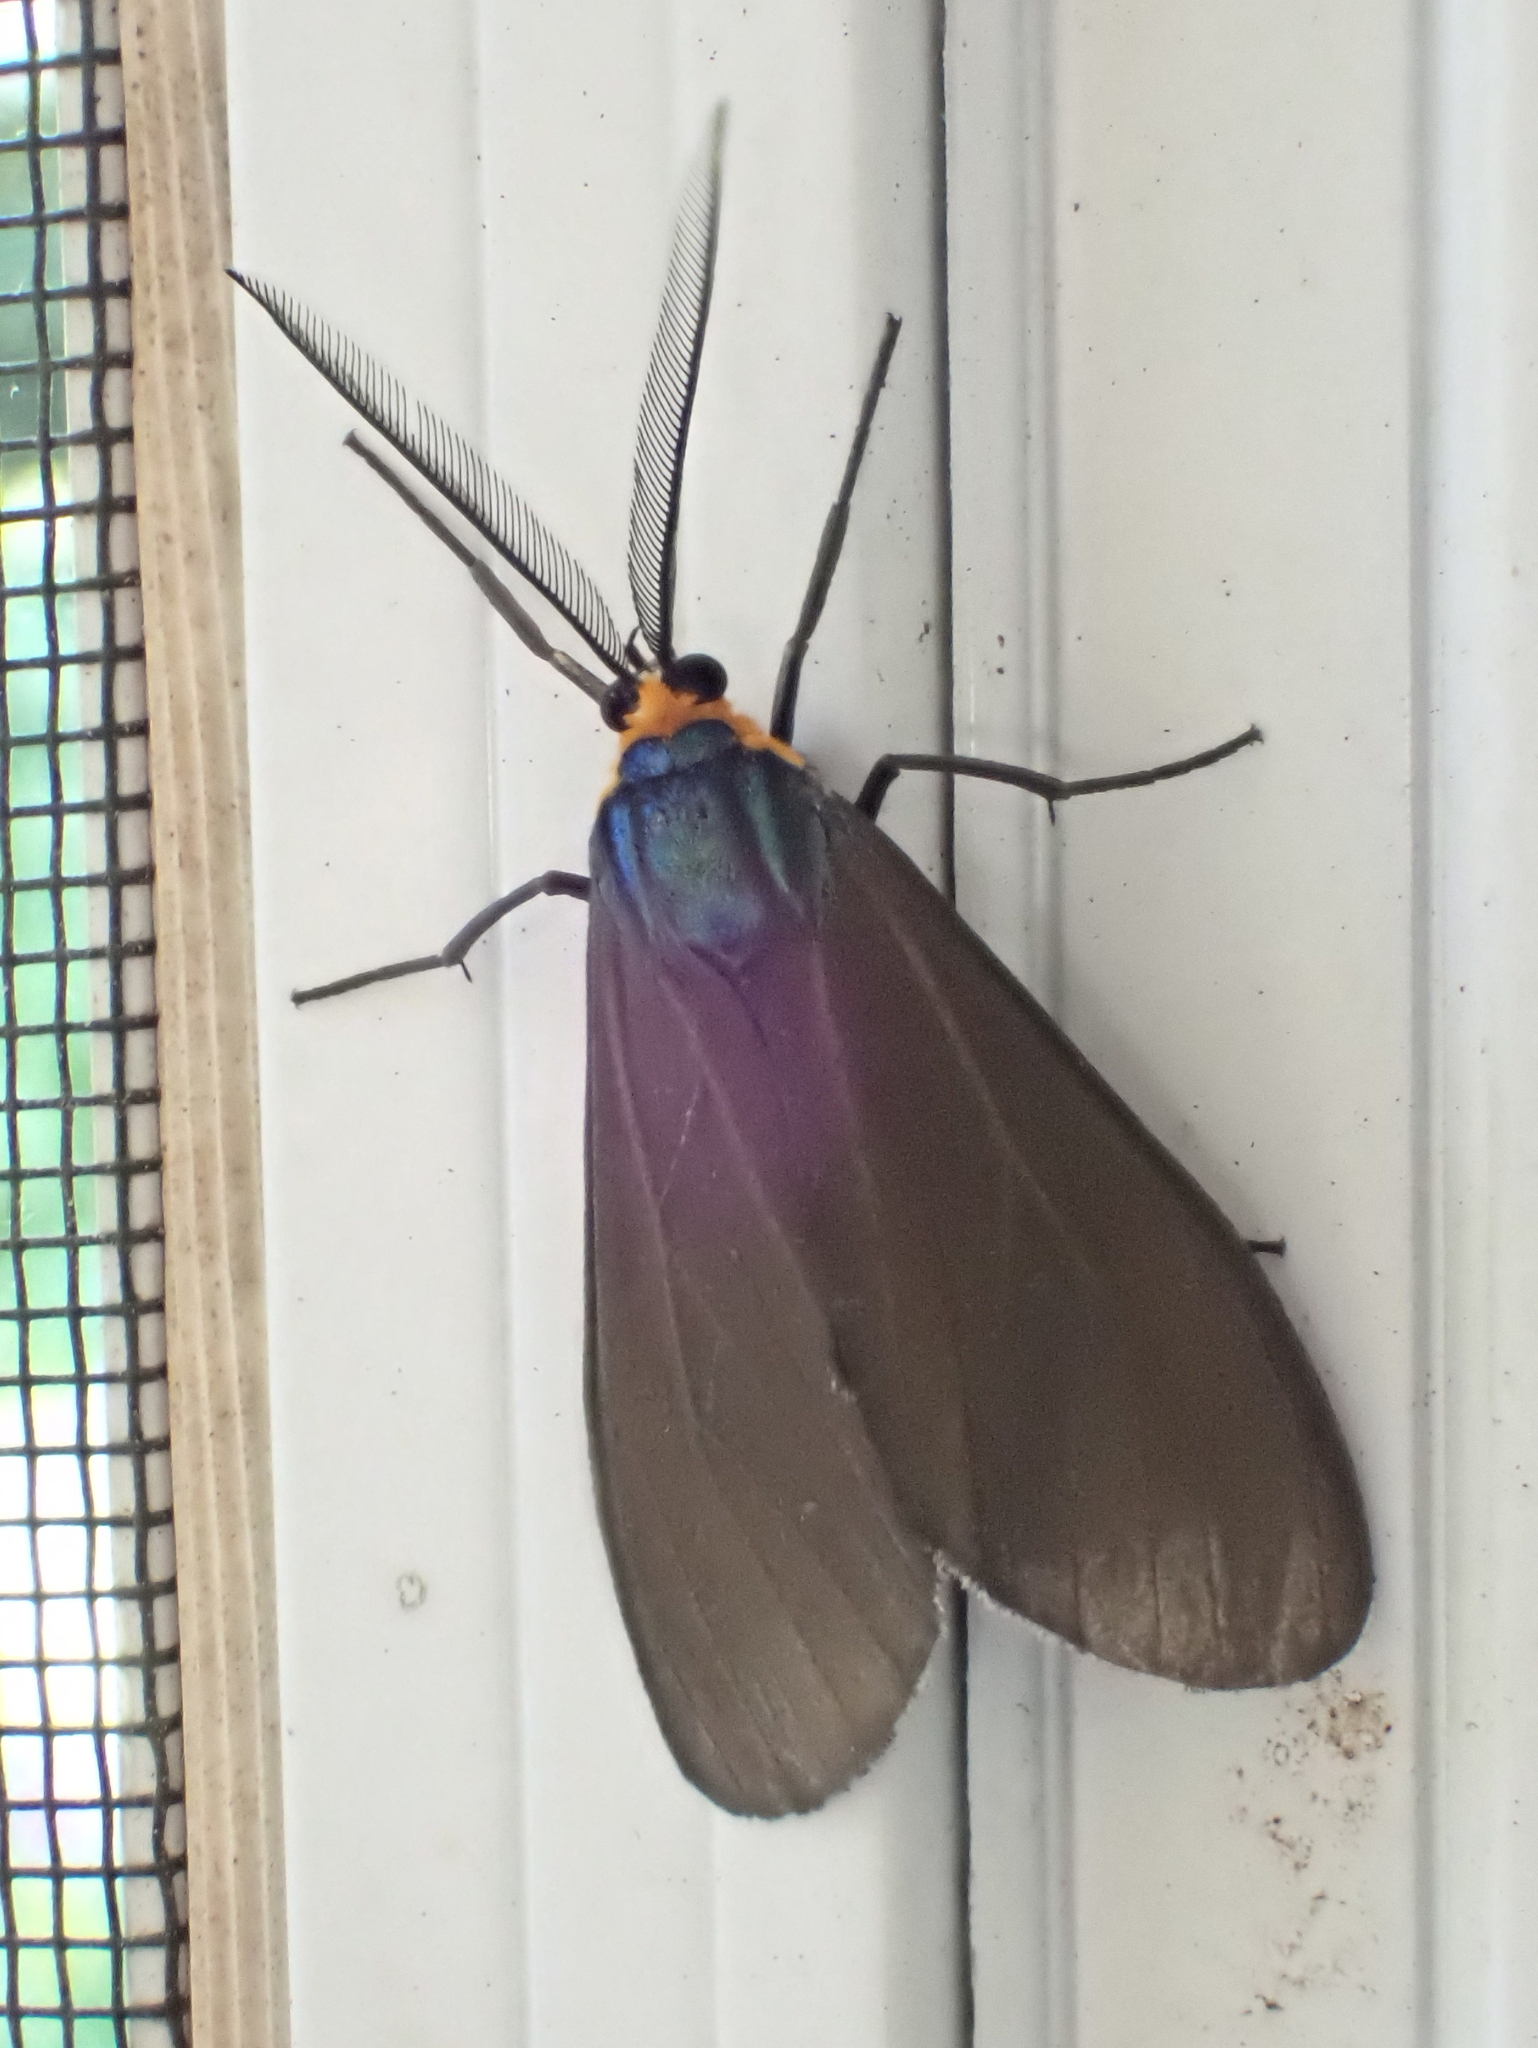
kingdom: Animalia
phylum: Arthropoda
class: Insecta
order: Lepidoptera
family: Erebidae
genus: Ctenucha
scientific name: Ctenucha virginica
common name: Virginia ctenucha moth
